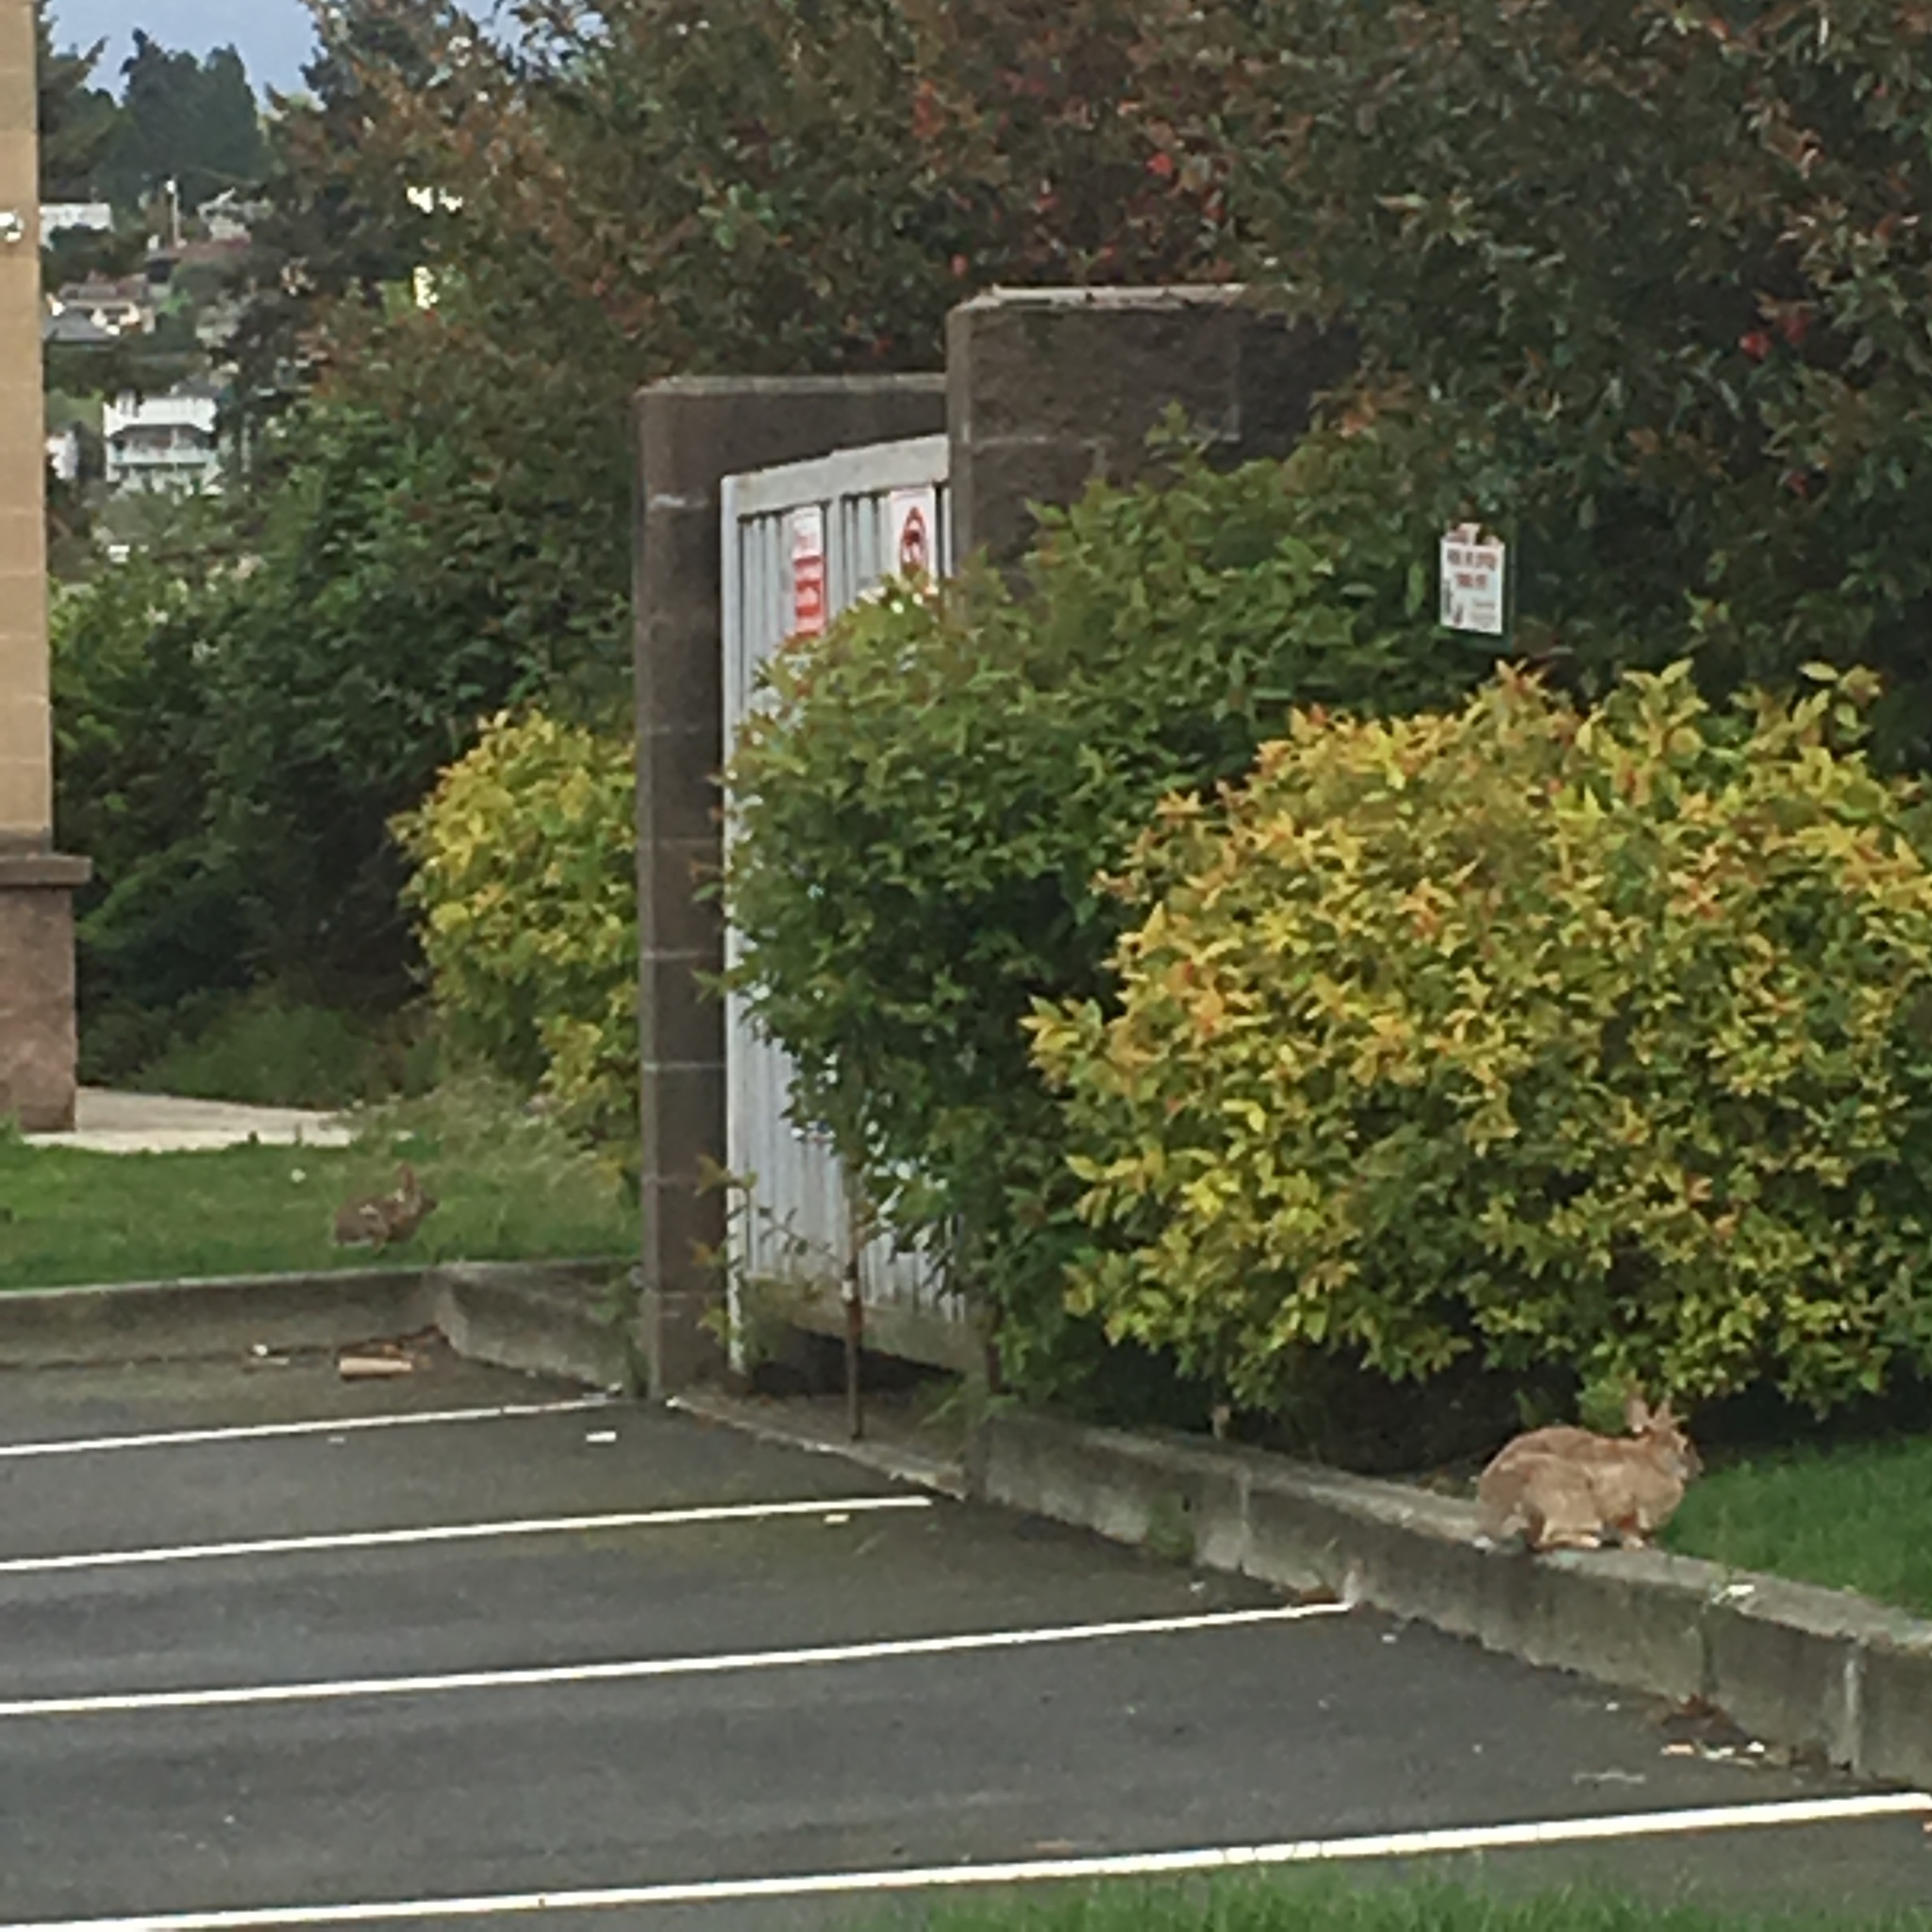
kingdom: Animalia
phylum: Chordata
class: Mammalia
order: Lagomorpha
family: Leporidae
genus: Sylvilagus
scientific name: Sylvilagus floridanus
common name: Eastern cottontail
